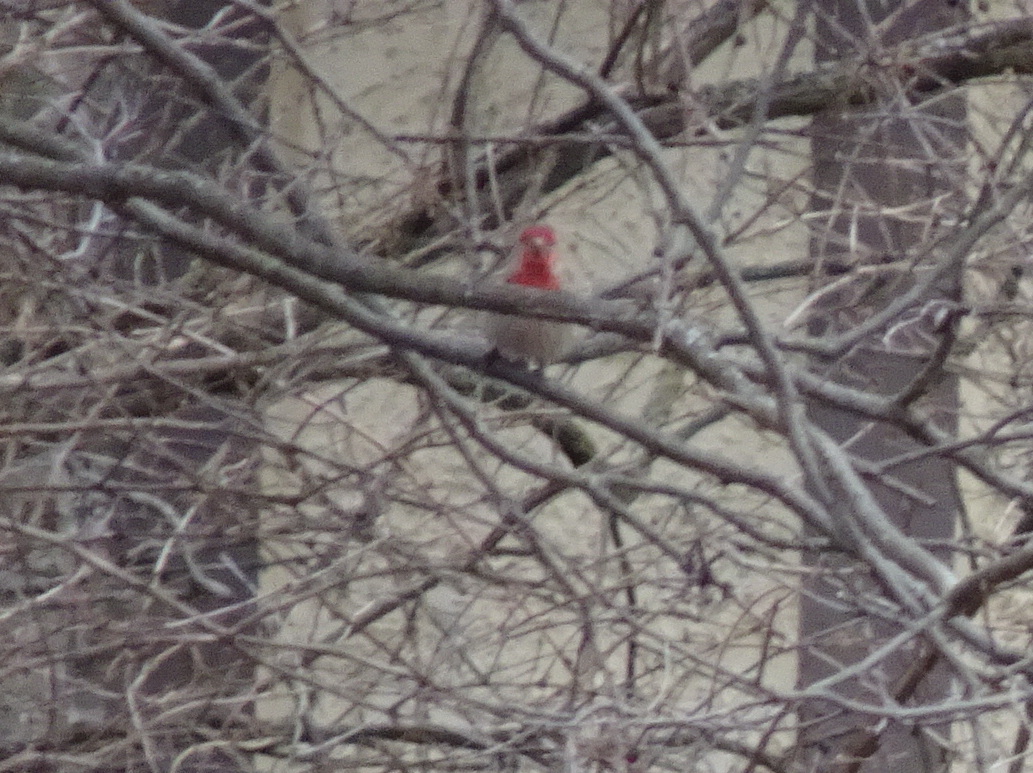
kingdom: Animalia
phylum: Chordata
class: Aves
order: Passeriformes
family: Fringillidae
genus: Haemorhous
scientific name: Haemorhous mexicanus
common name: House finch
